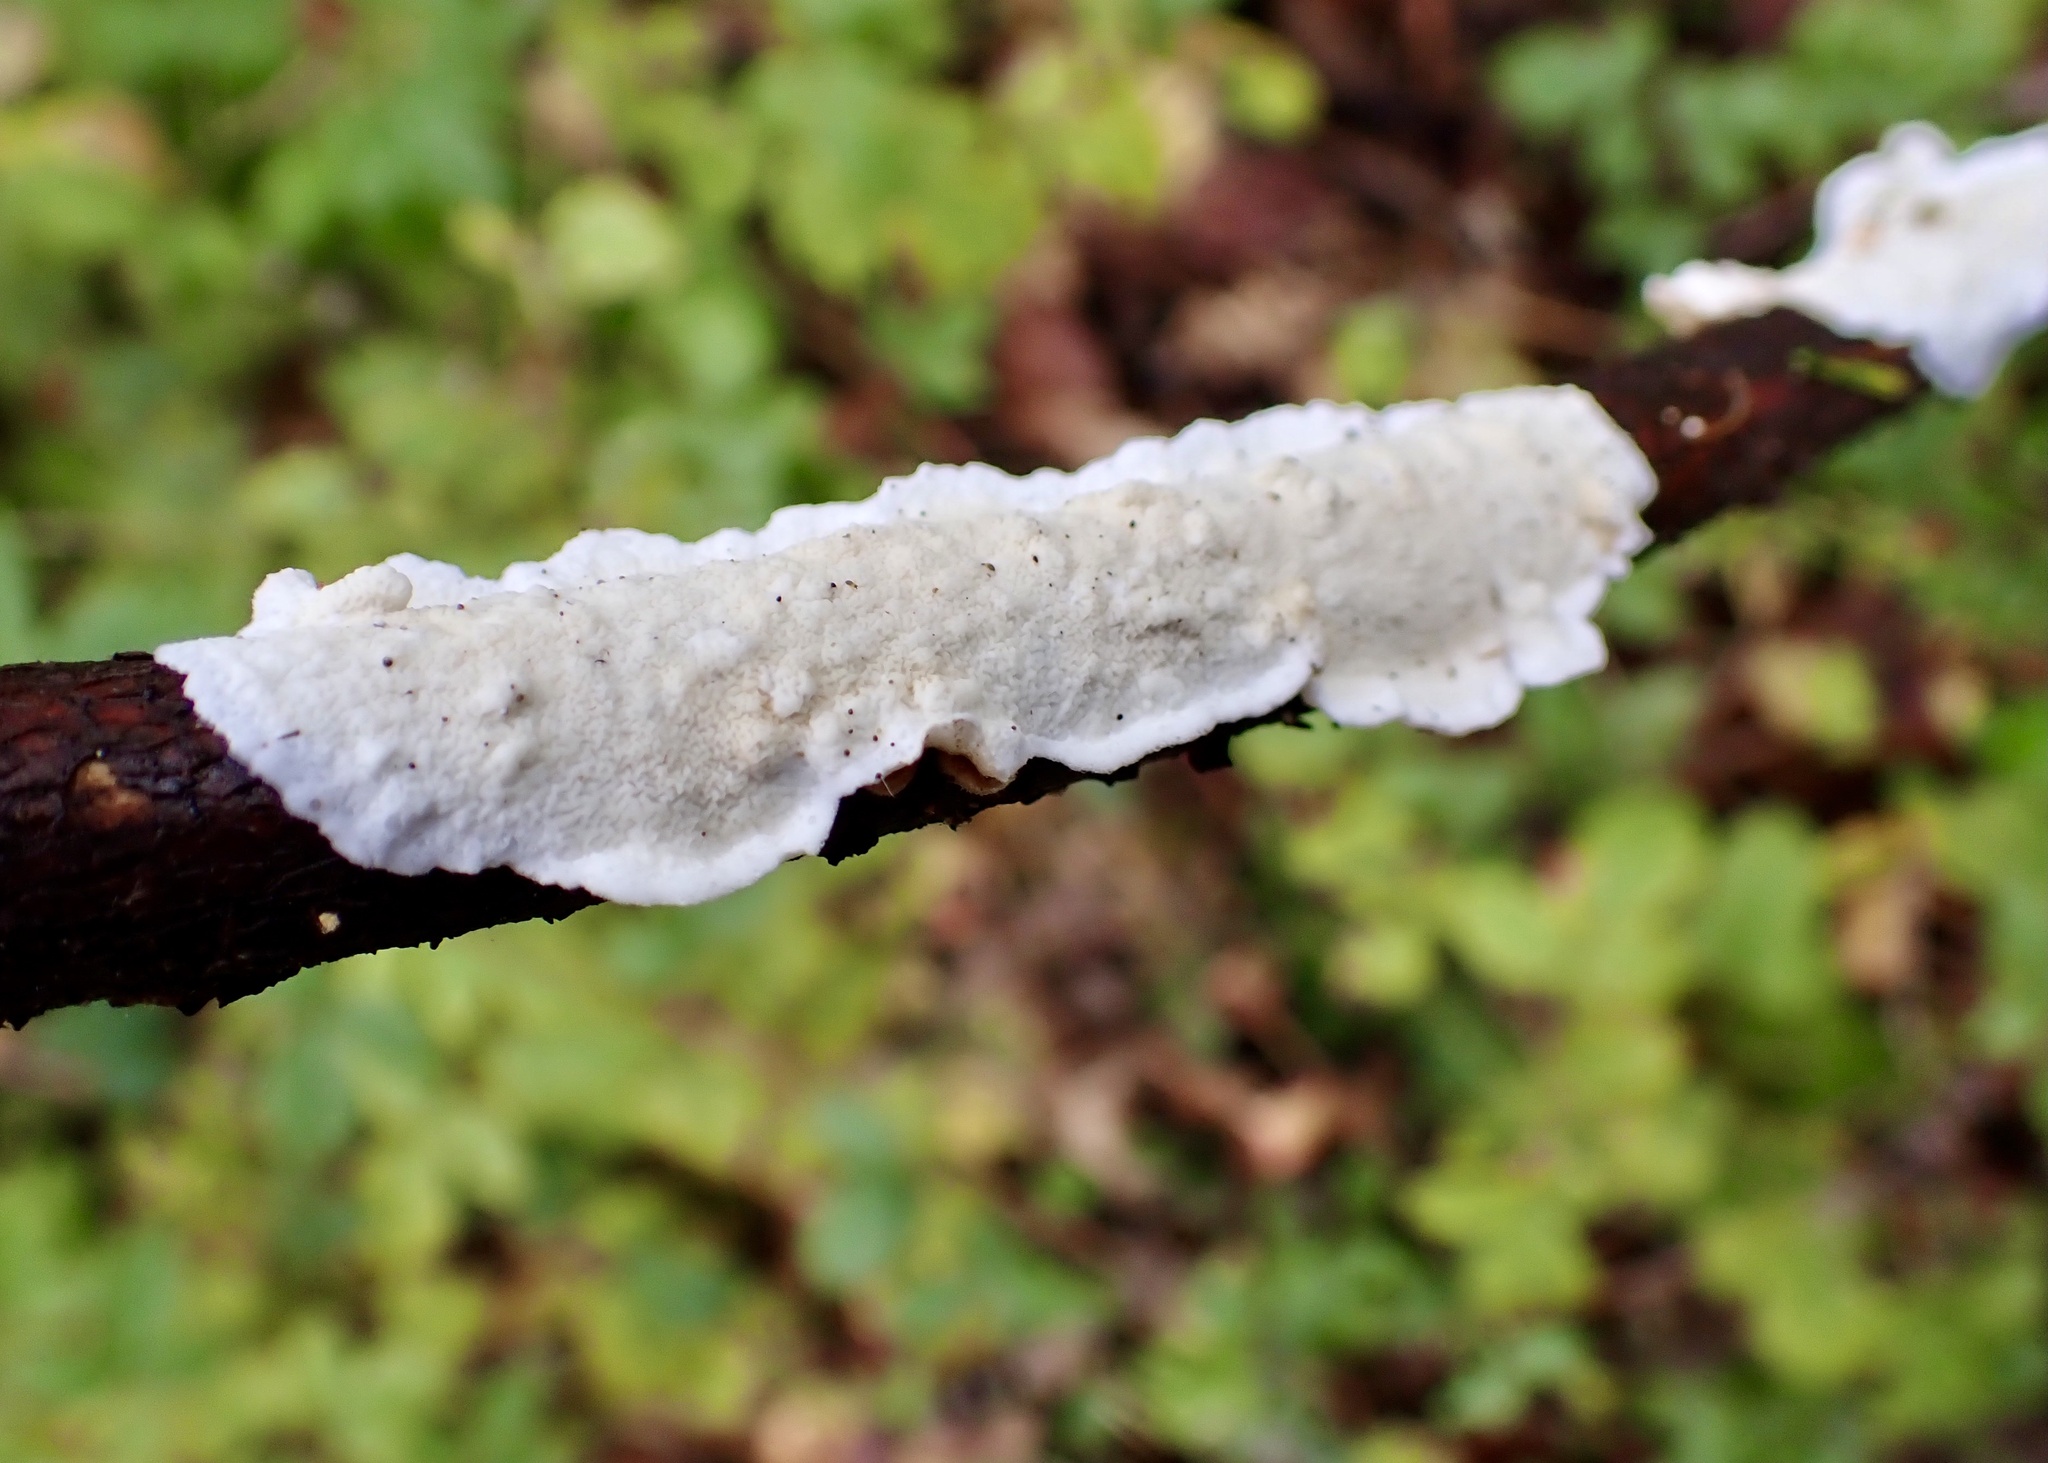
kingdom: Fungi
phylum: Basidiomycota
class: Agaricomycetes
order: Polyporales
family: Irpicaceae
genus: Byssomerulius
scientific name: Byssomerulius corium
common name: Netted crust
